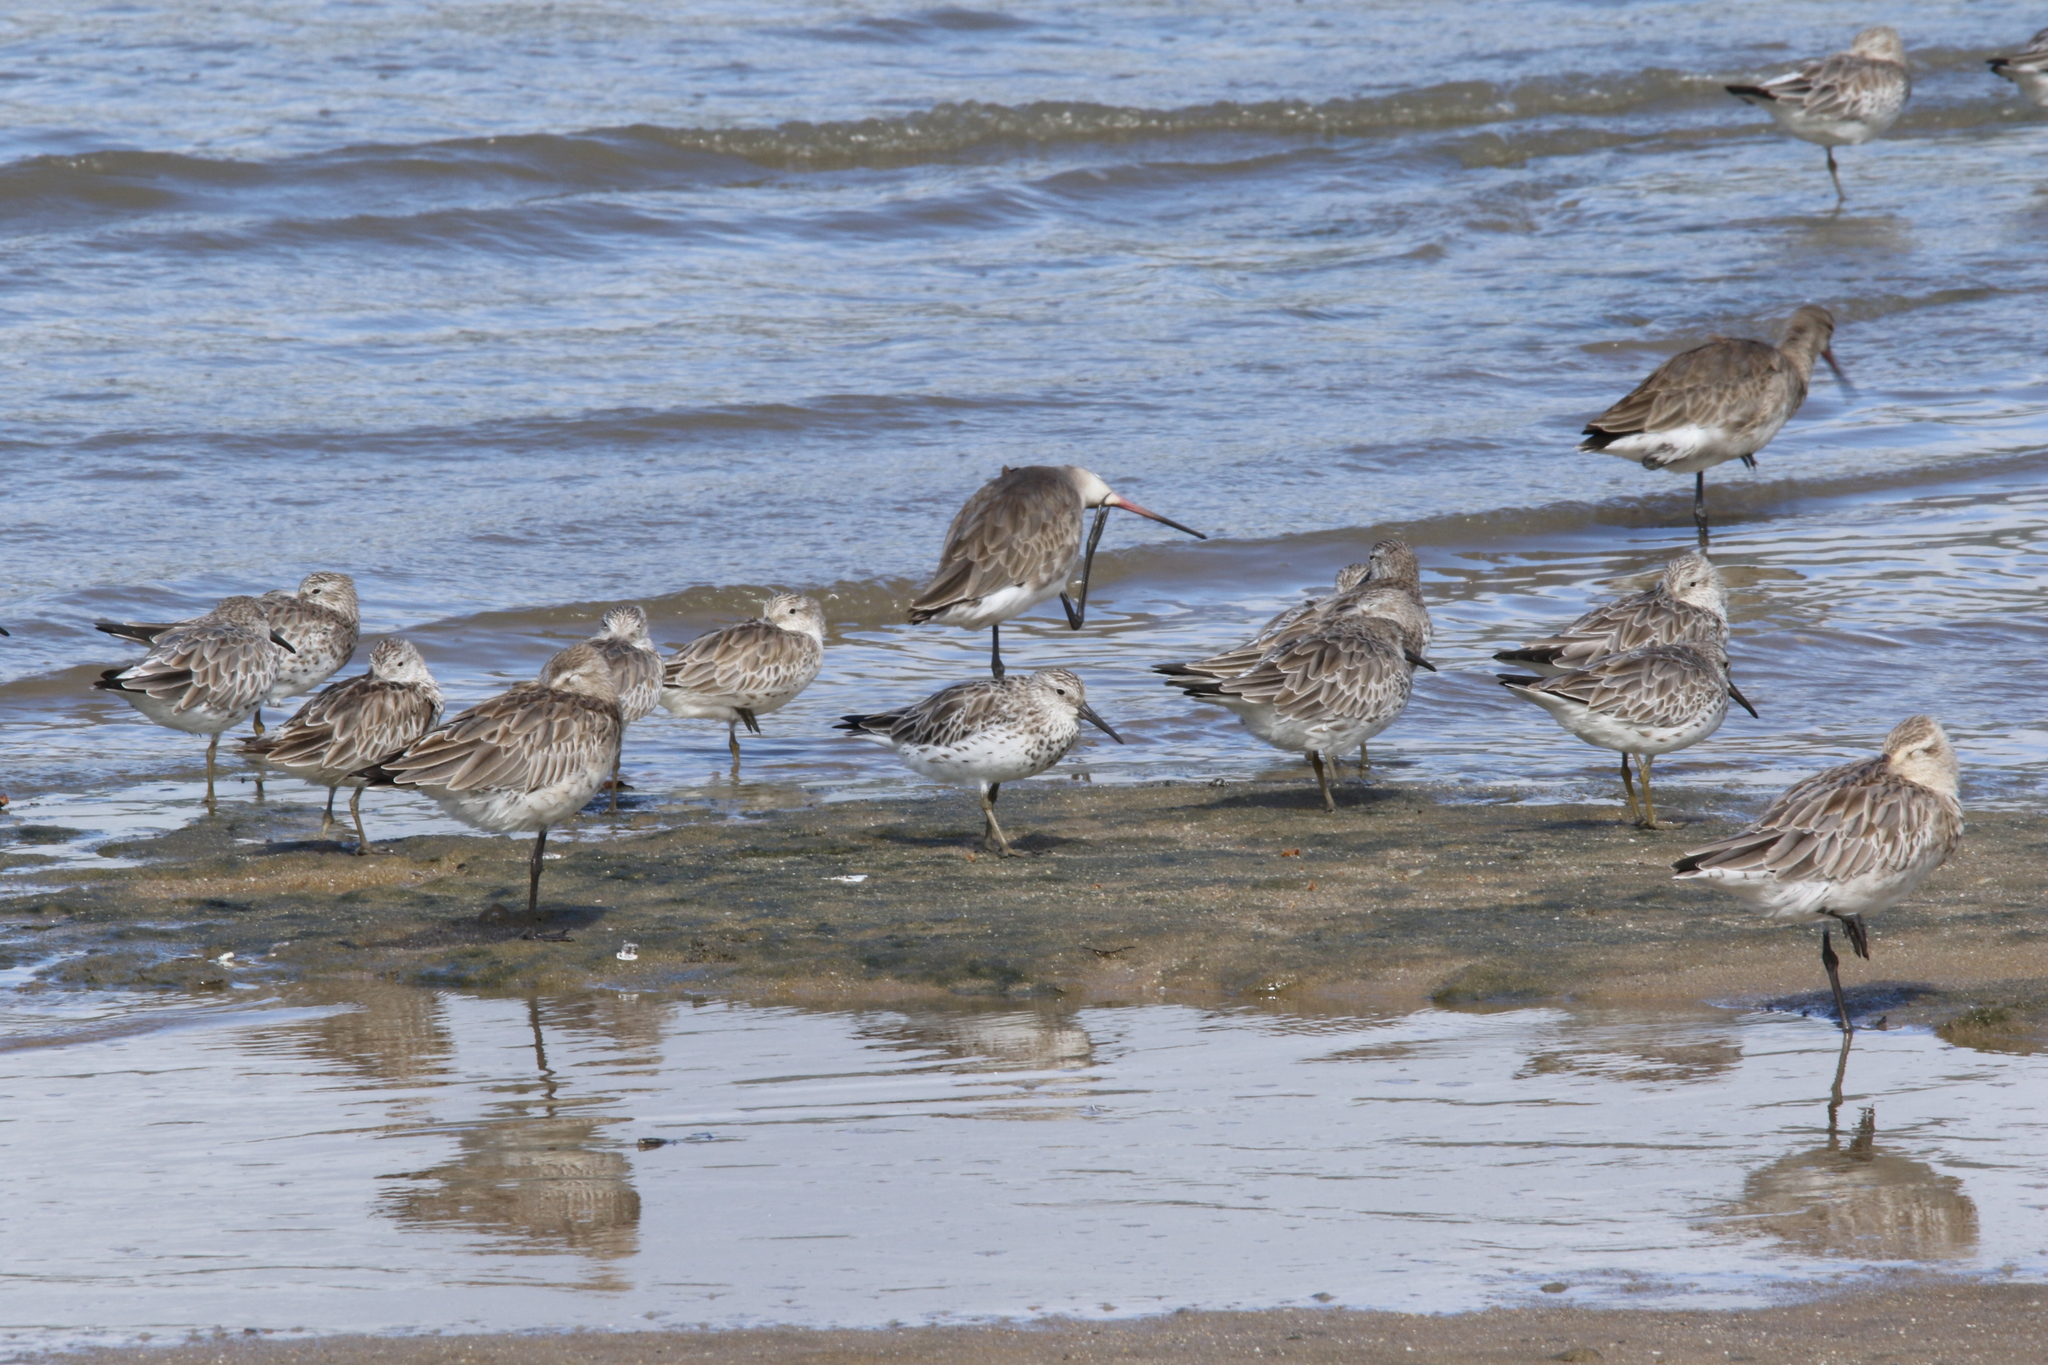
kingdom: Animalia
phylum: Chordata
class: Aves
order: Charadriiformes
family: Scolopacidae
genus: Limosa
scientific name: Limosa lapponica
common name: Bar-tailed godwit
